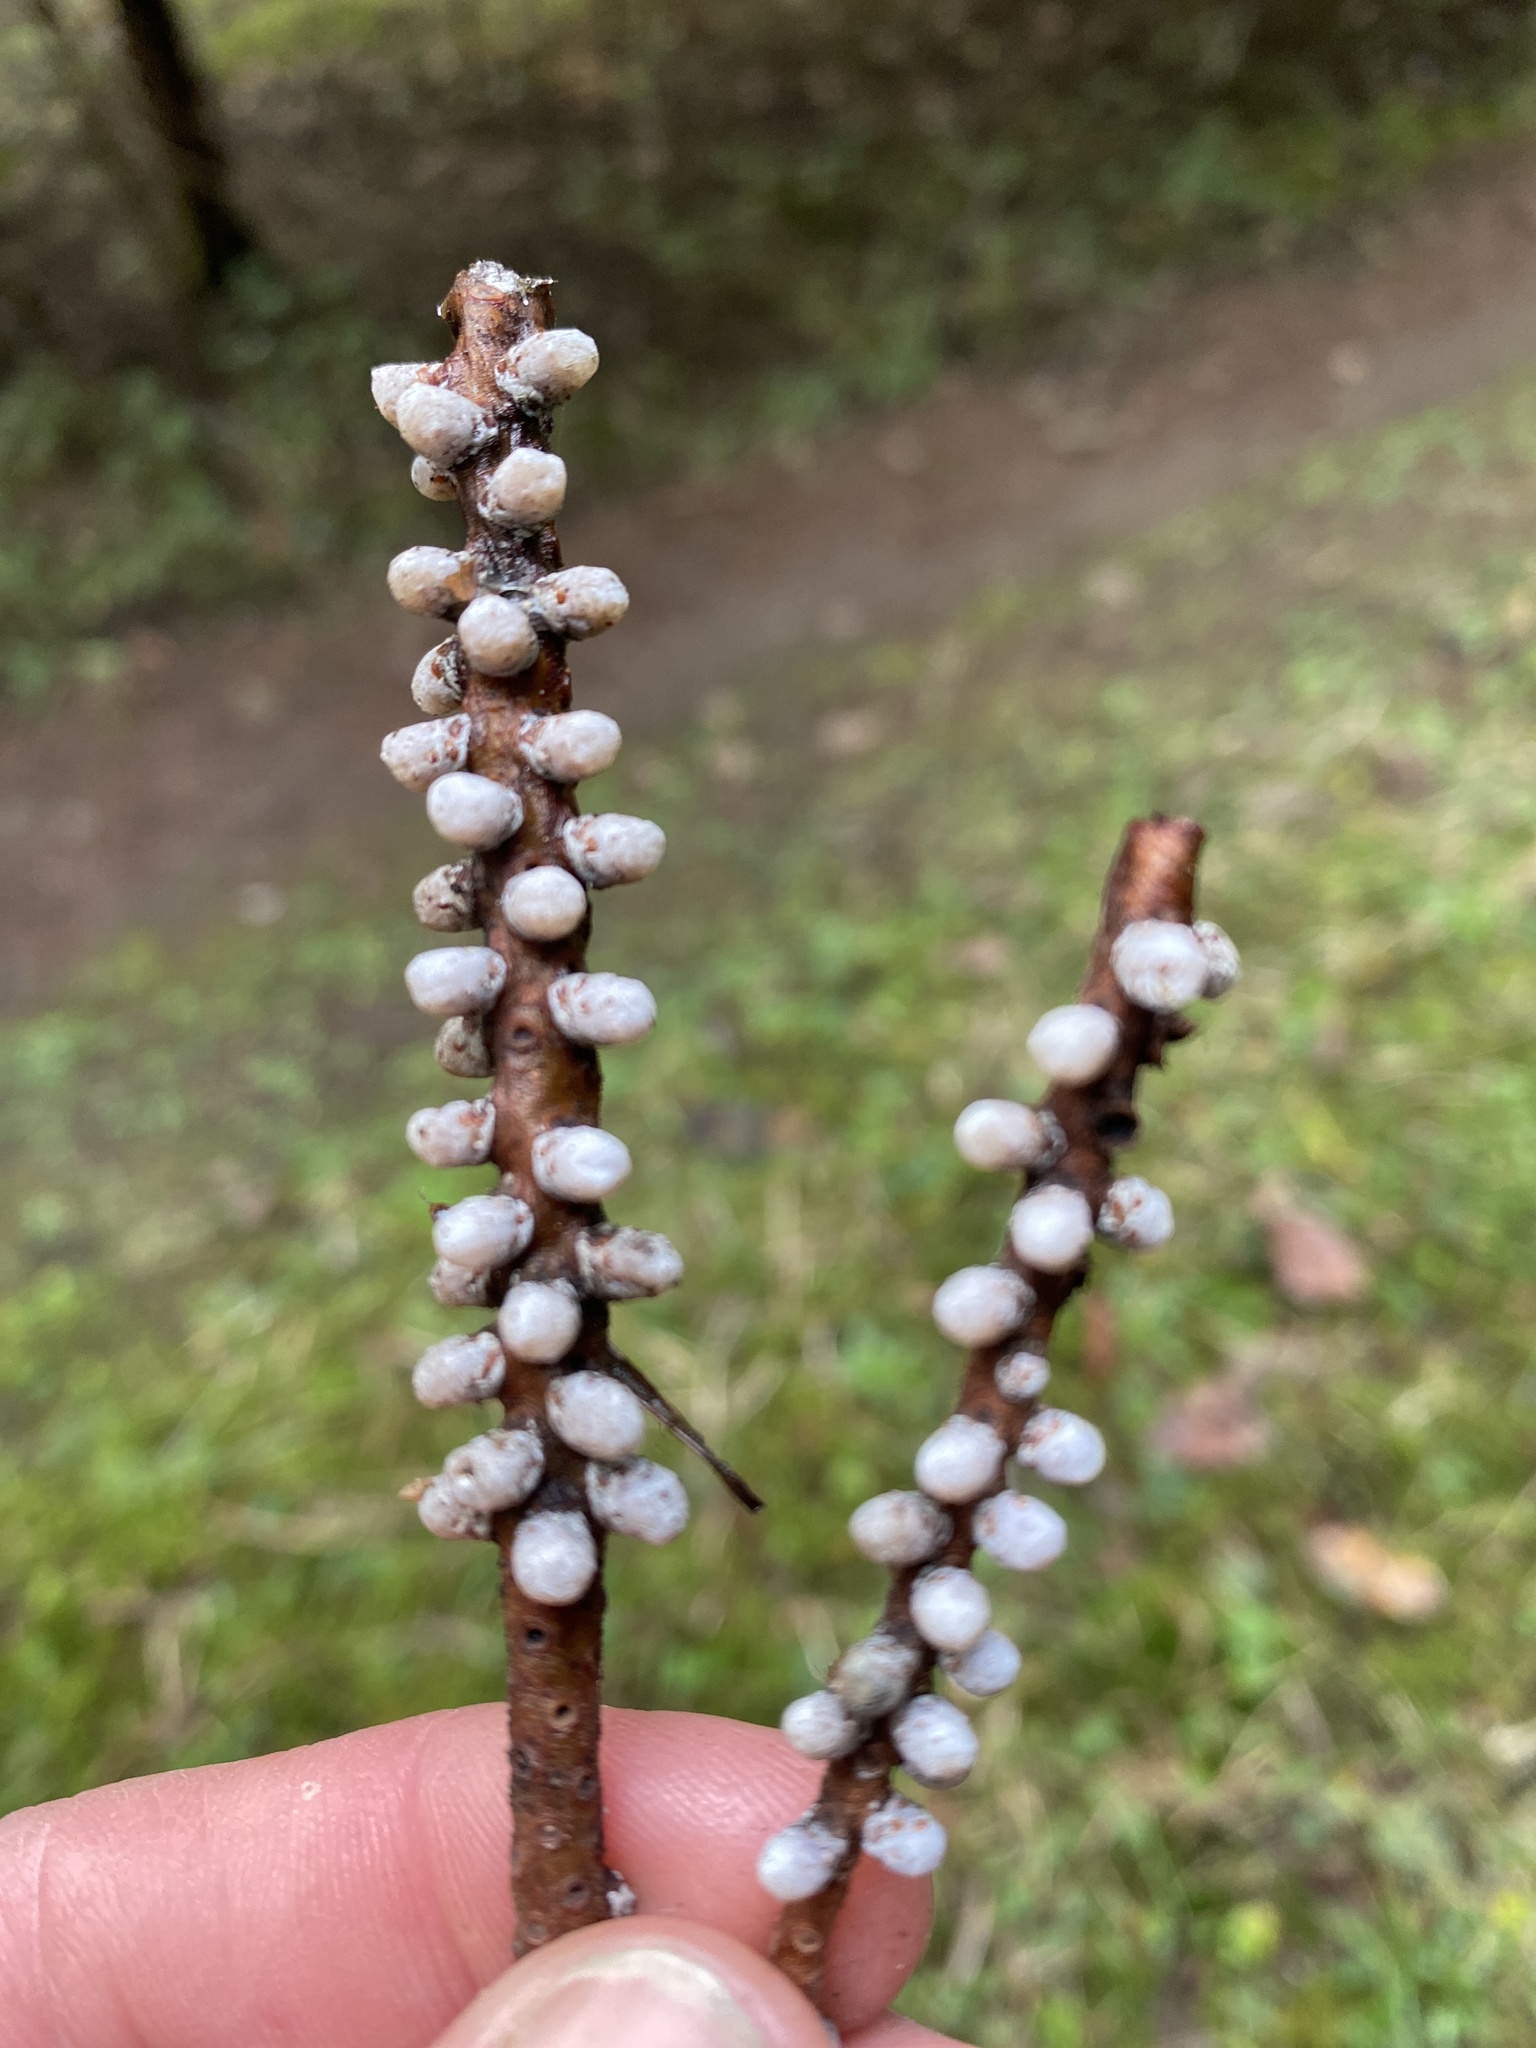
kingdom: Plantae
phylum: Tracheophyta
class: Pinopsida
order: Pinales
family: Pinaceae
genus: Abies
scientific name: Abies grandis
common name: Giant fir
